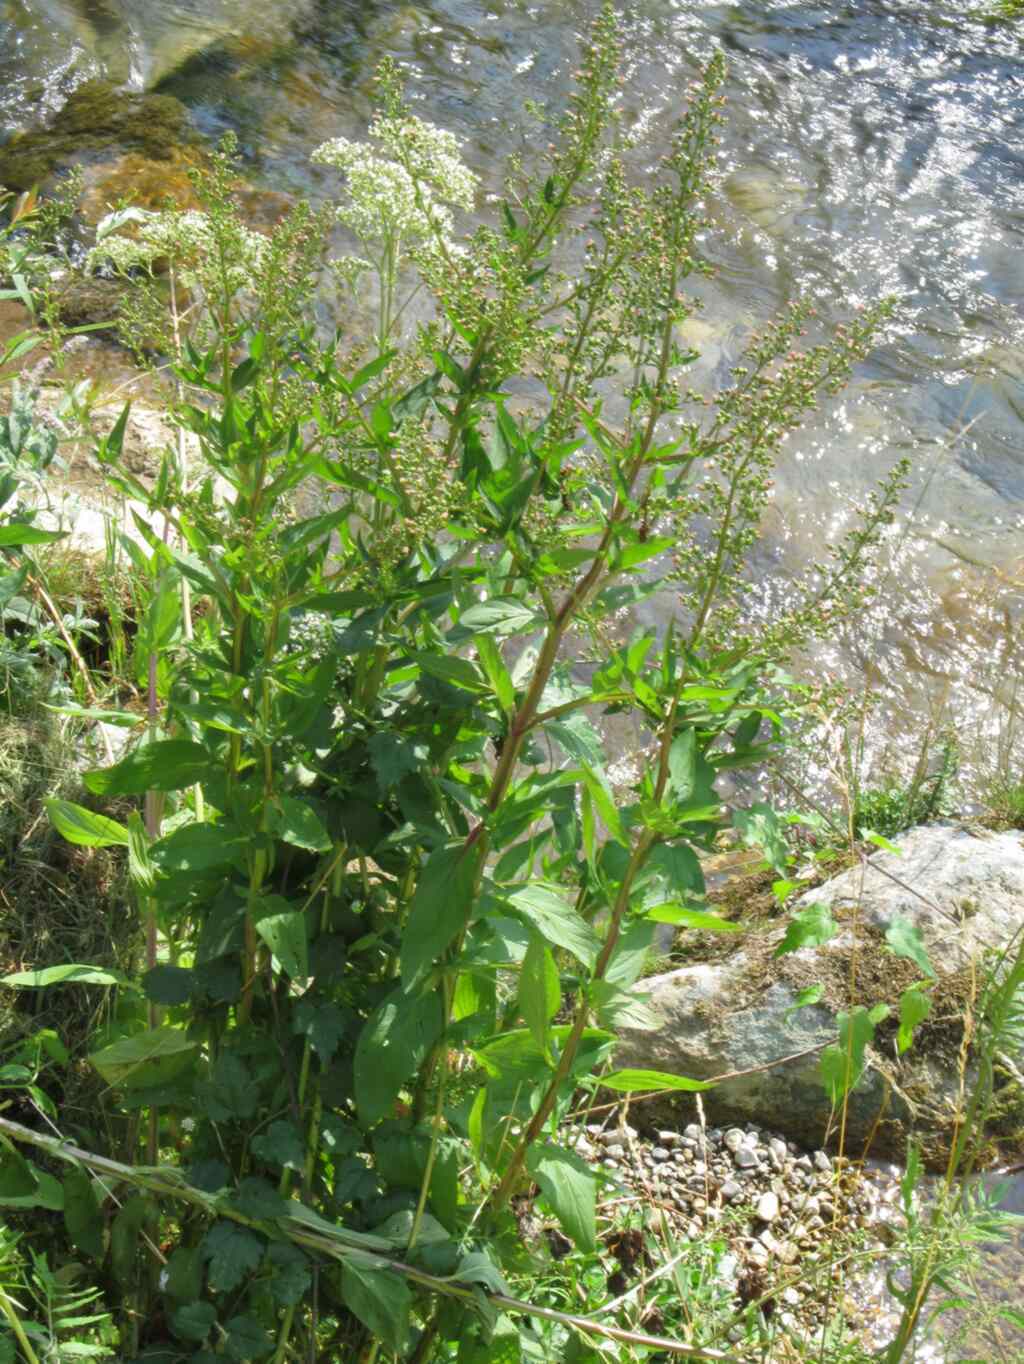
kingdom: Plantae
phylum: Tracheophyta
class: Magnoliopsida
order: Lamiales
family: Scrophulariaceae
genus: Scrophularia
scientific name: Scrophularia umbrosa
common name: Green figwort
